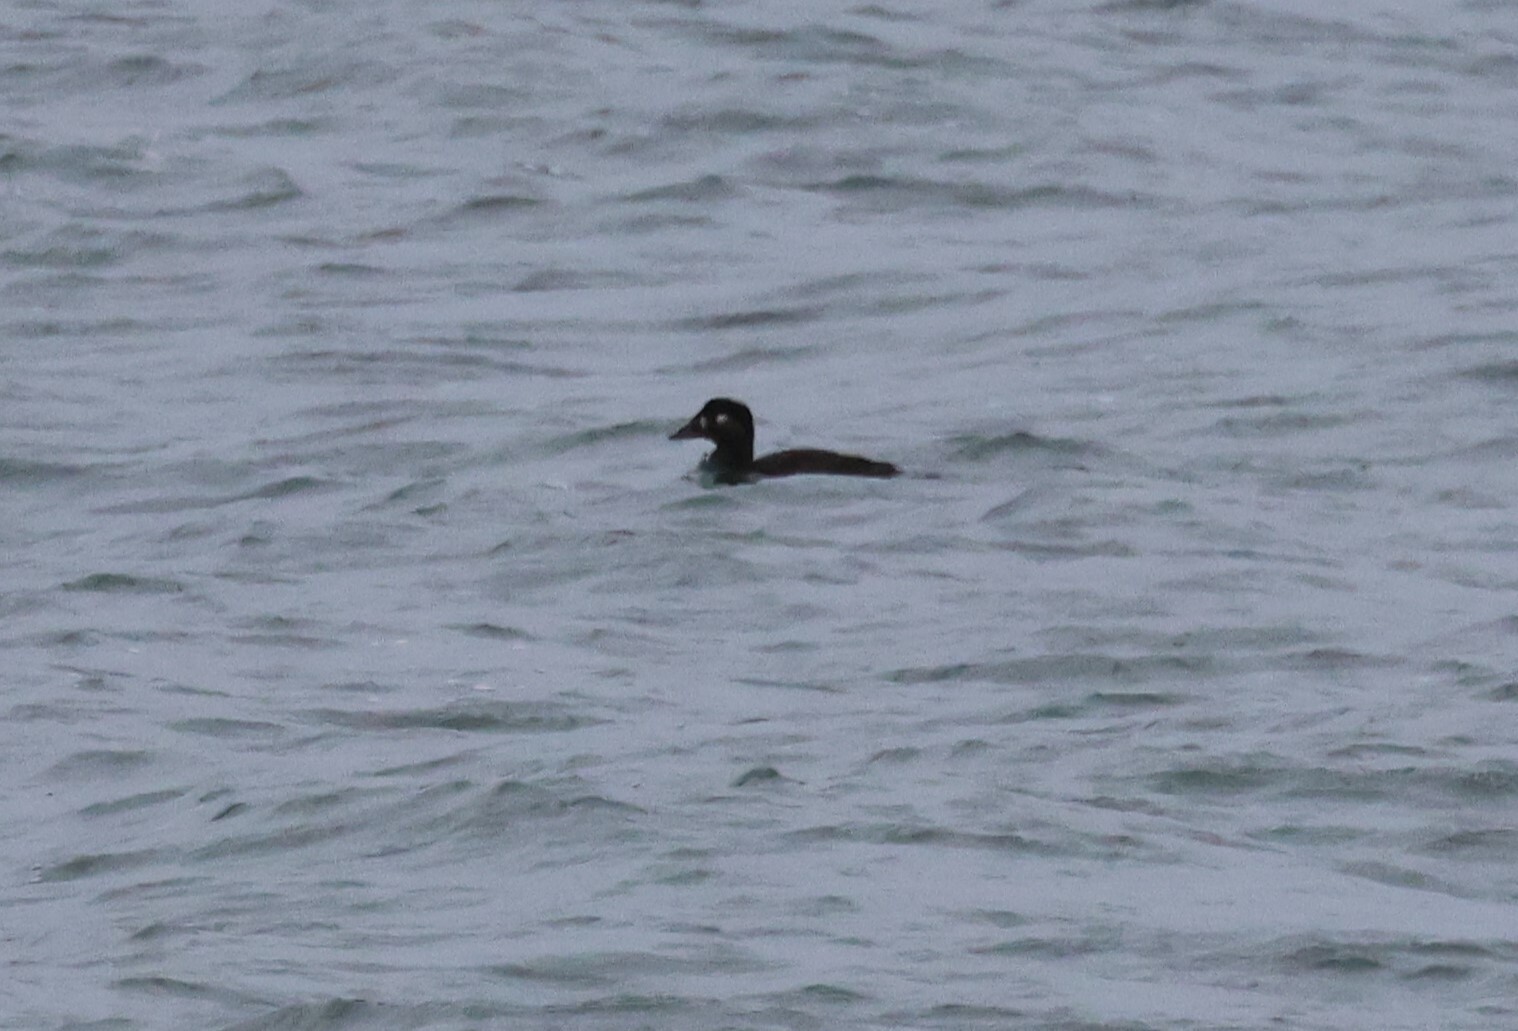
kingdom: Animalia
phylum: Chordata
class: Aves
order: Anseriformes
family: Anatidae
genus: Melanitta
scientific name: Melanitta perspicillata
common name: Surf scoter
